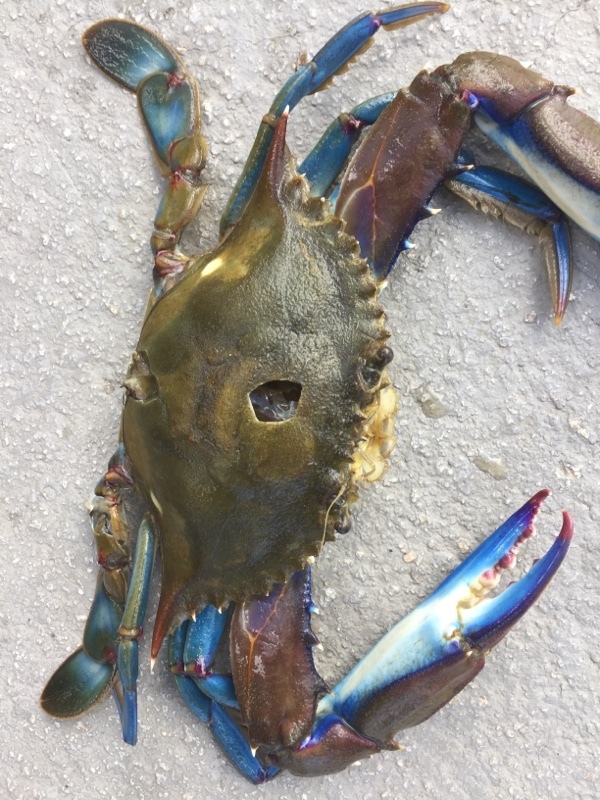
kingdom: Animalia
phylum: Arthropoda
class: Malacostraca
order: Decapoda
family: Portunidae
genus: Callinectes
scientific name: Callinectes sapidus
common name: Blue crab
